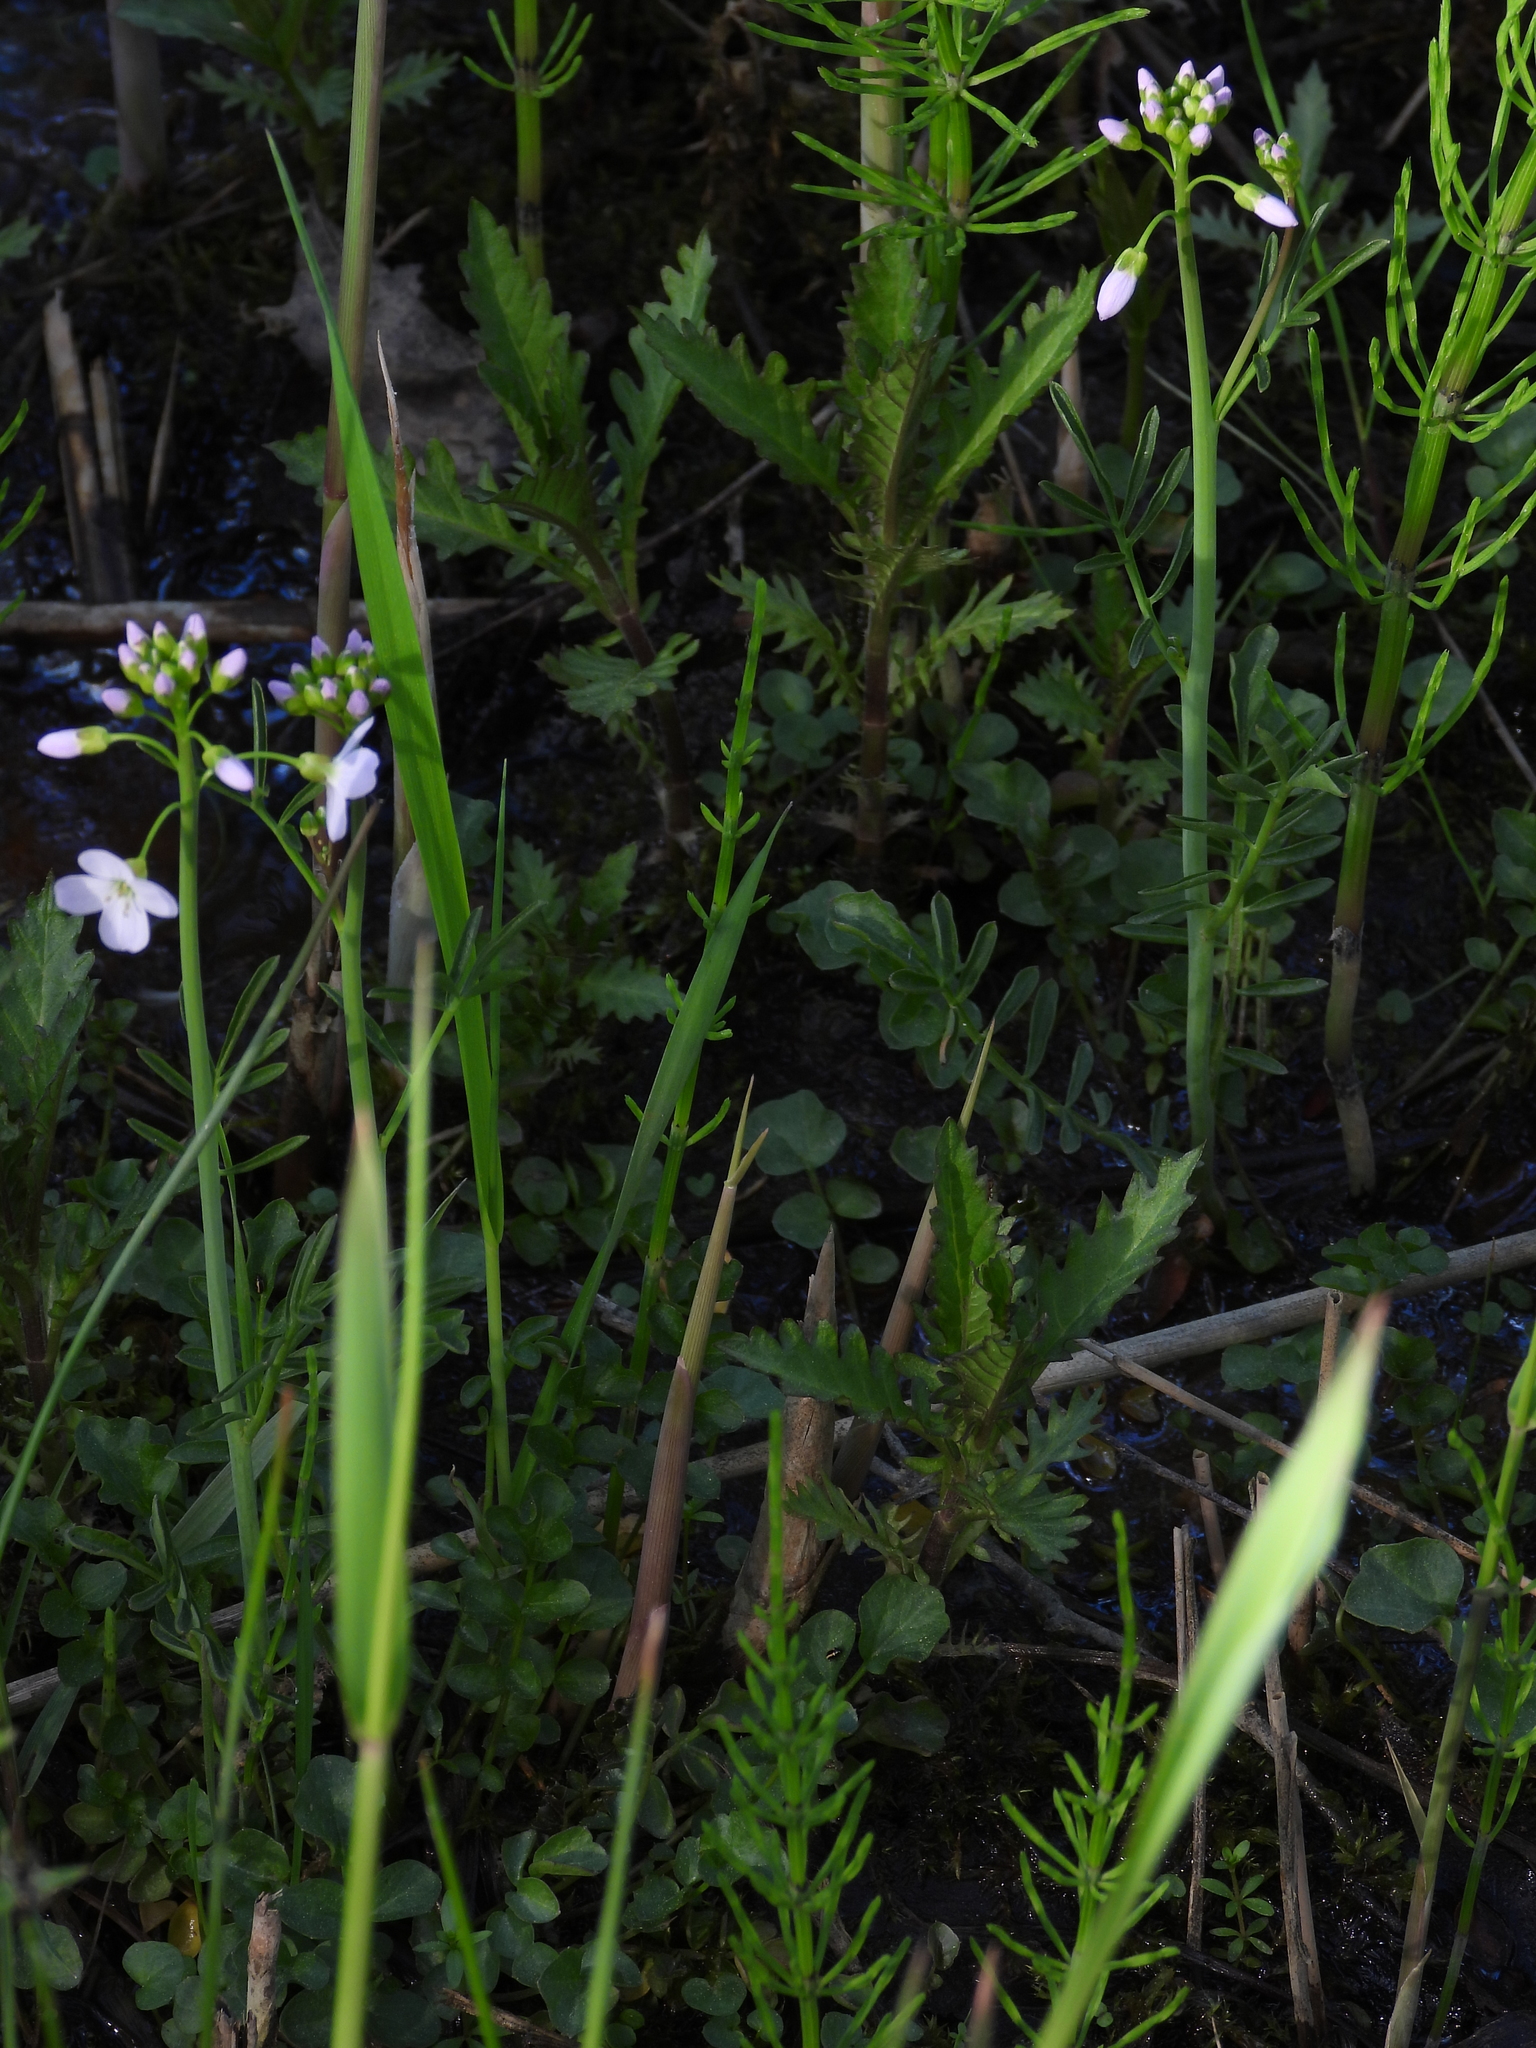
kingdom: Plantae
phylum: Tracheophyta
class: Magnoliopsida
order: Brassicales
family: Brassicaceae
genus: Cardamine
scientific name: Cardamine pratensis
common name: Cuckoo flower
